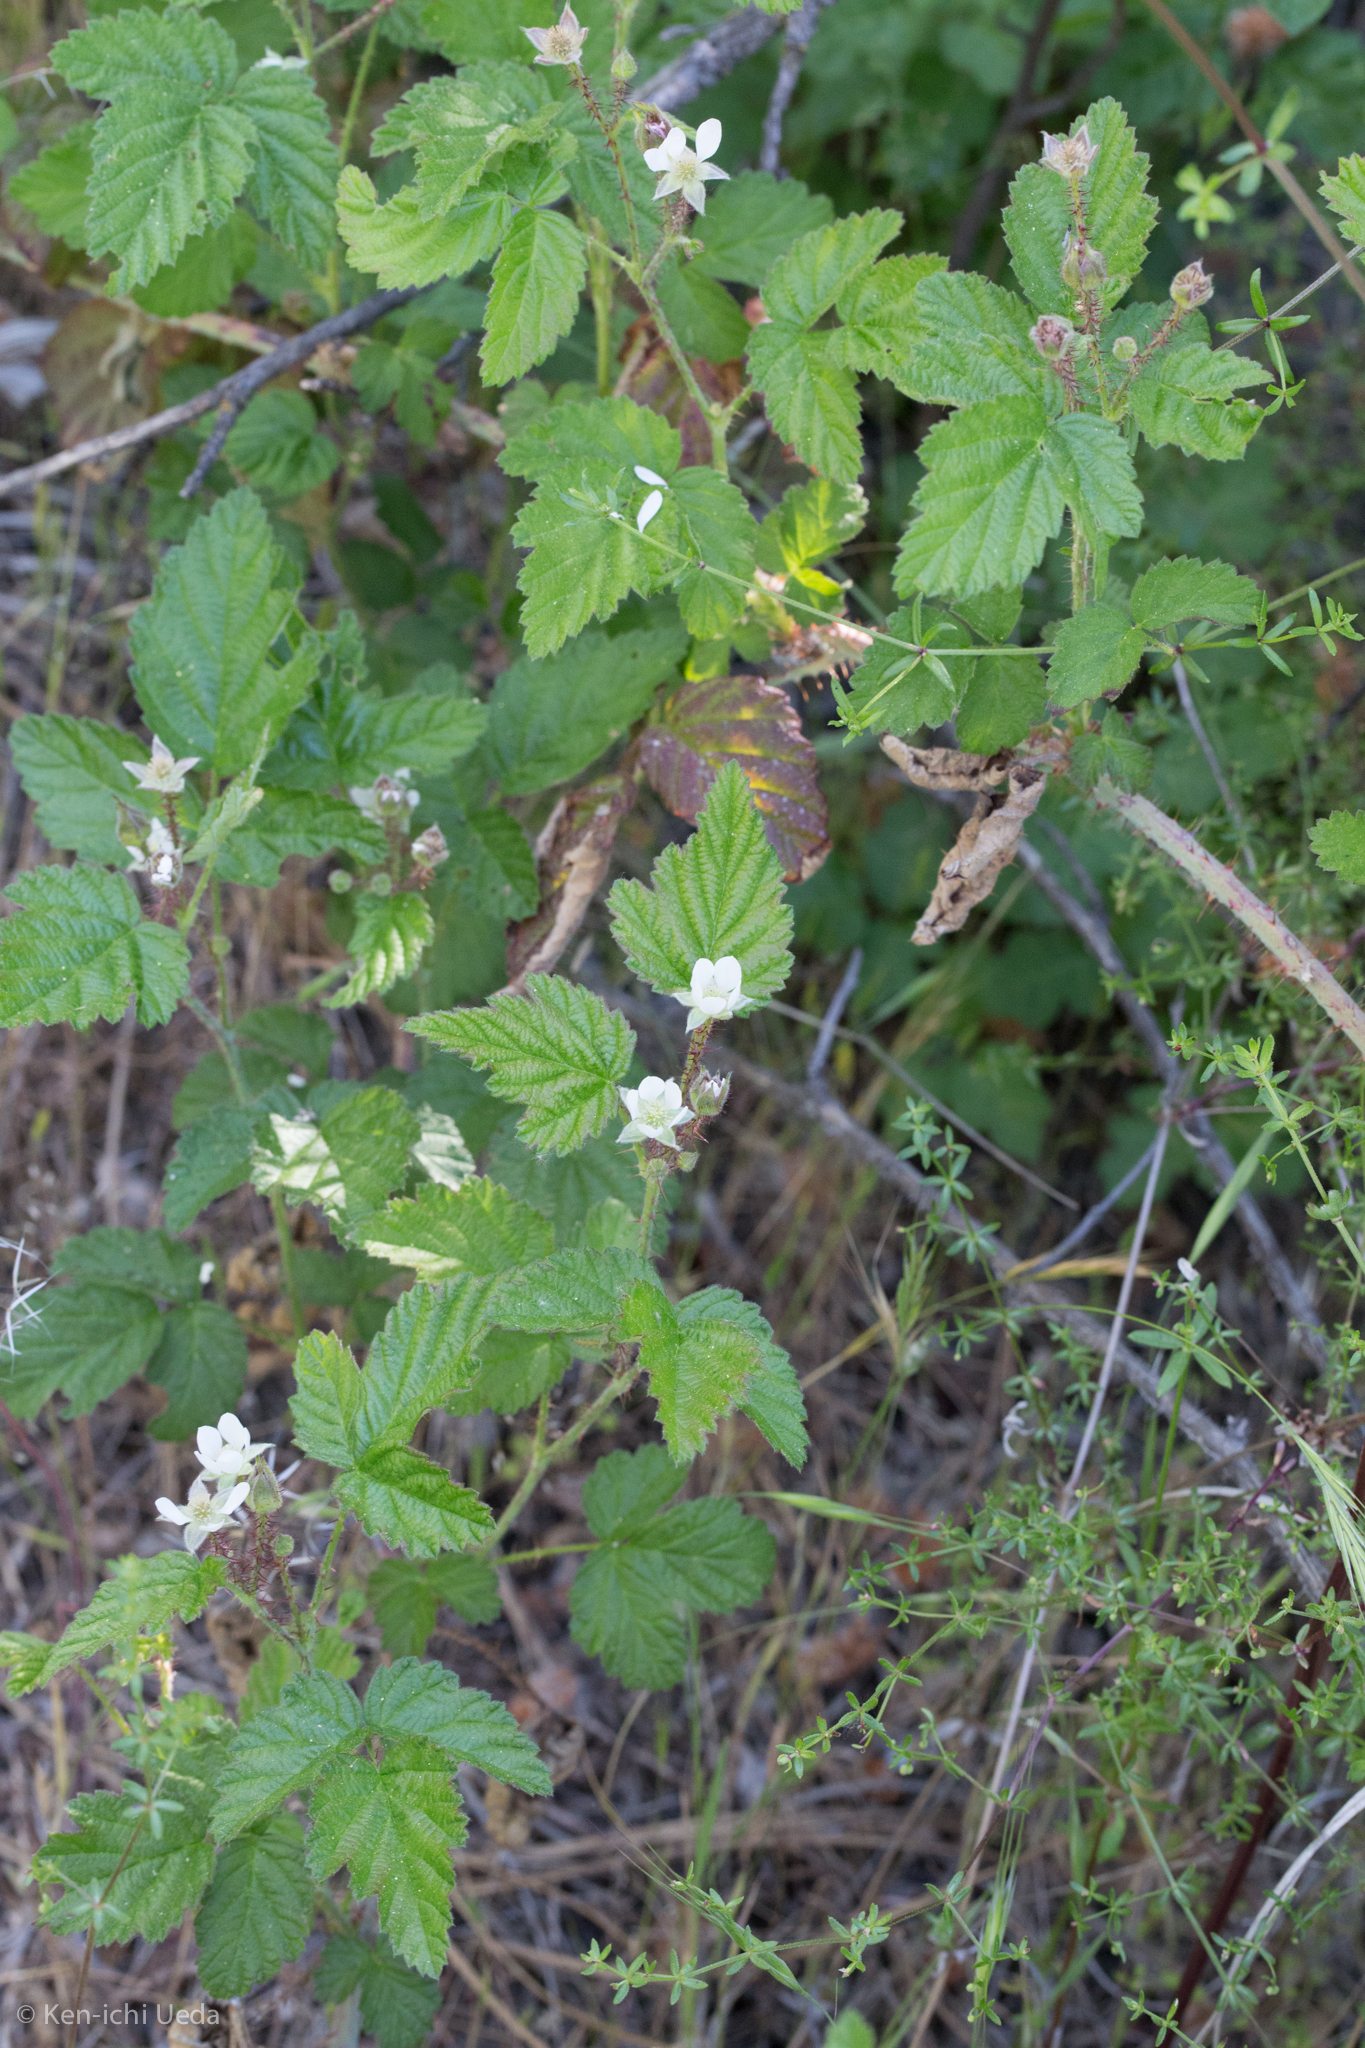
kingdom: Plantae
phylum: Tracheophyta
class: Magnoliopsida
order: Rosales
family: Rosaceae
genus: Rubus
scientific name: Rubus ursinus
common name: Pacific blackberry
